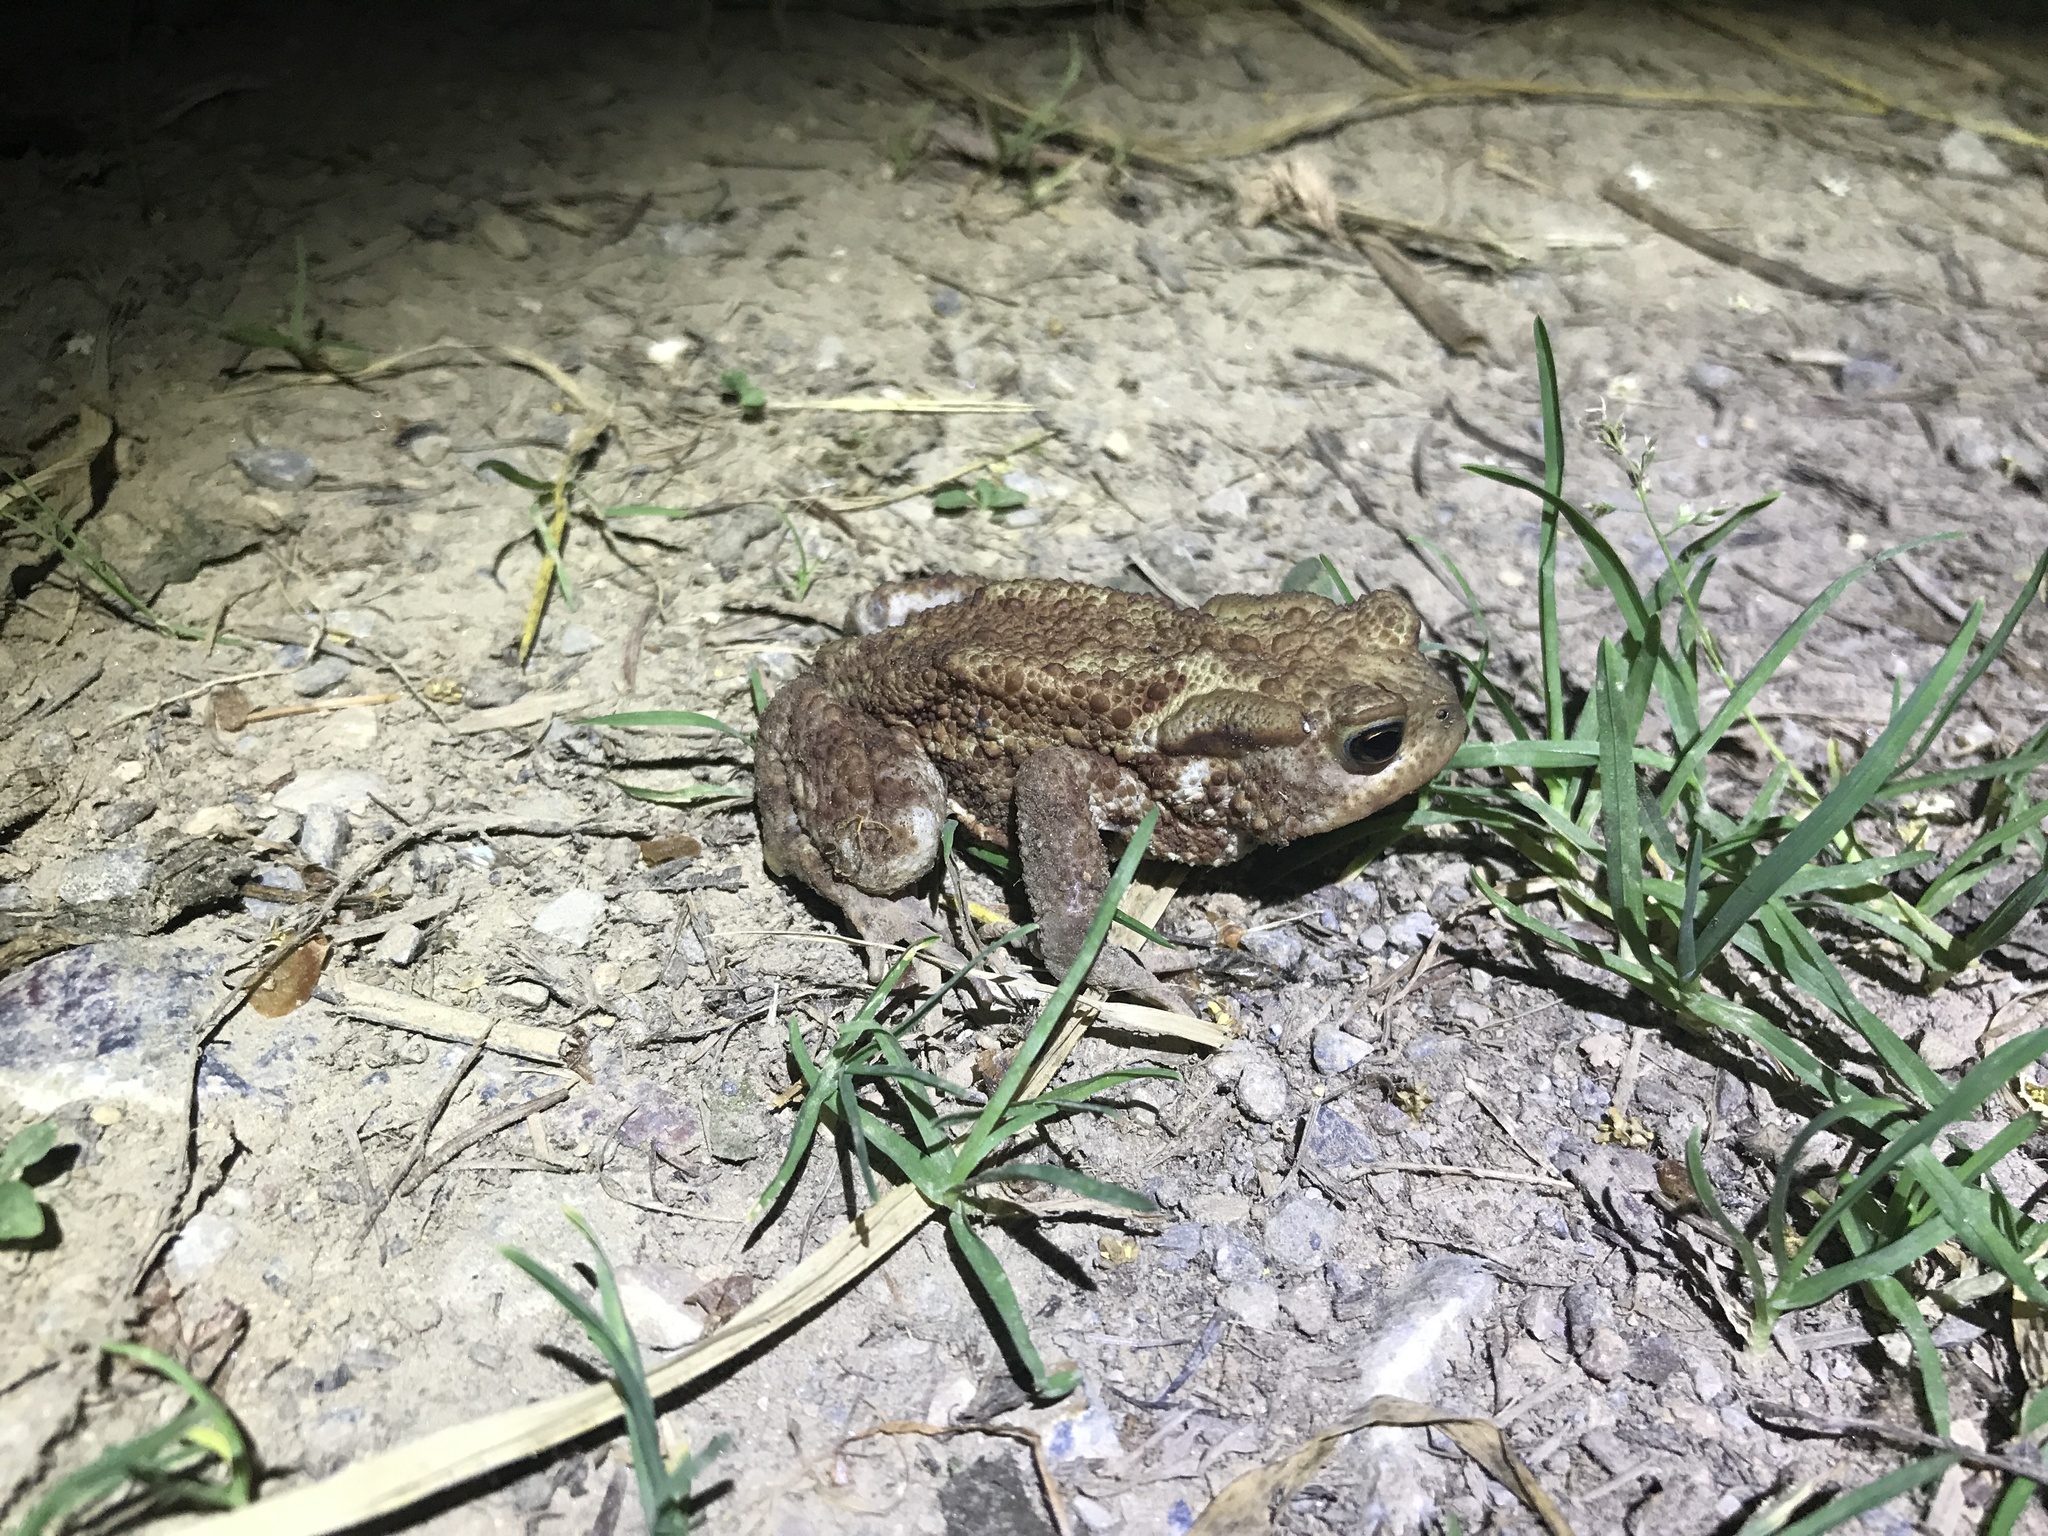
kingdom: Animalia
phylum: Chordata
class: Amphibia
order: Anura
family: Bufonidae
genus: Bufo
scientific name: Bufo bufo
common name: Common toad
